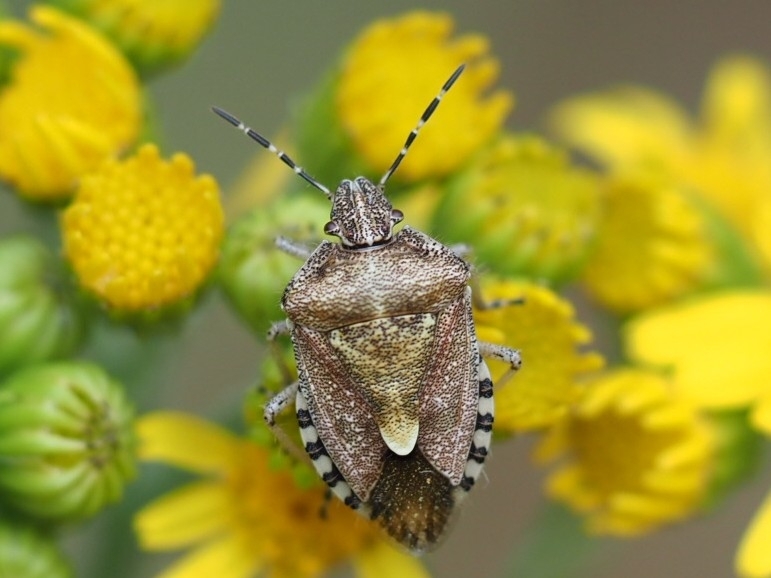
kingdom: Animalia
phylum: Arthropoda
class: Insecta
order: Hemiptera
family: Pentatomidae
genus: Dolycoris
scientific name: Dolycoris baccarum
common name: Sloe bug
